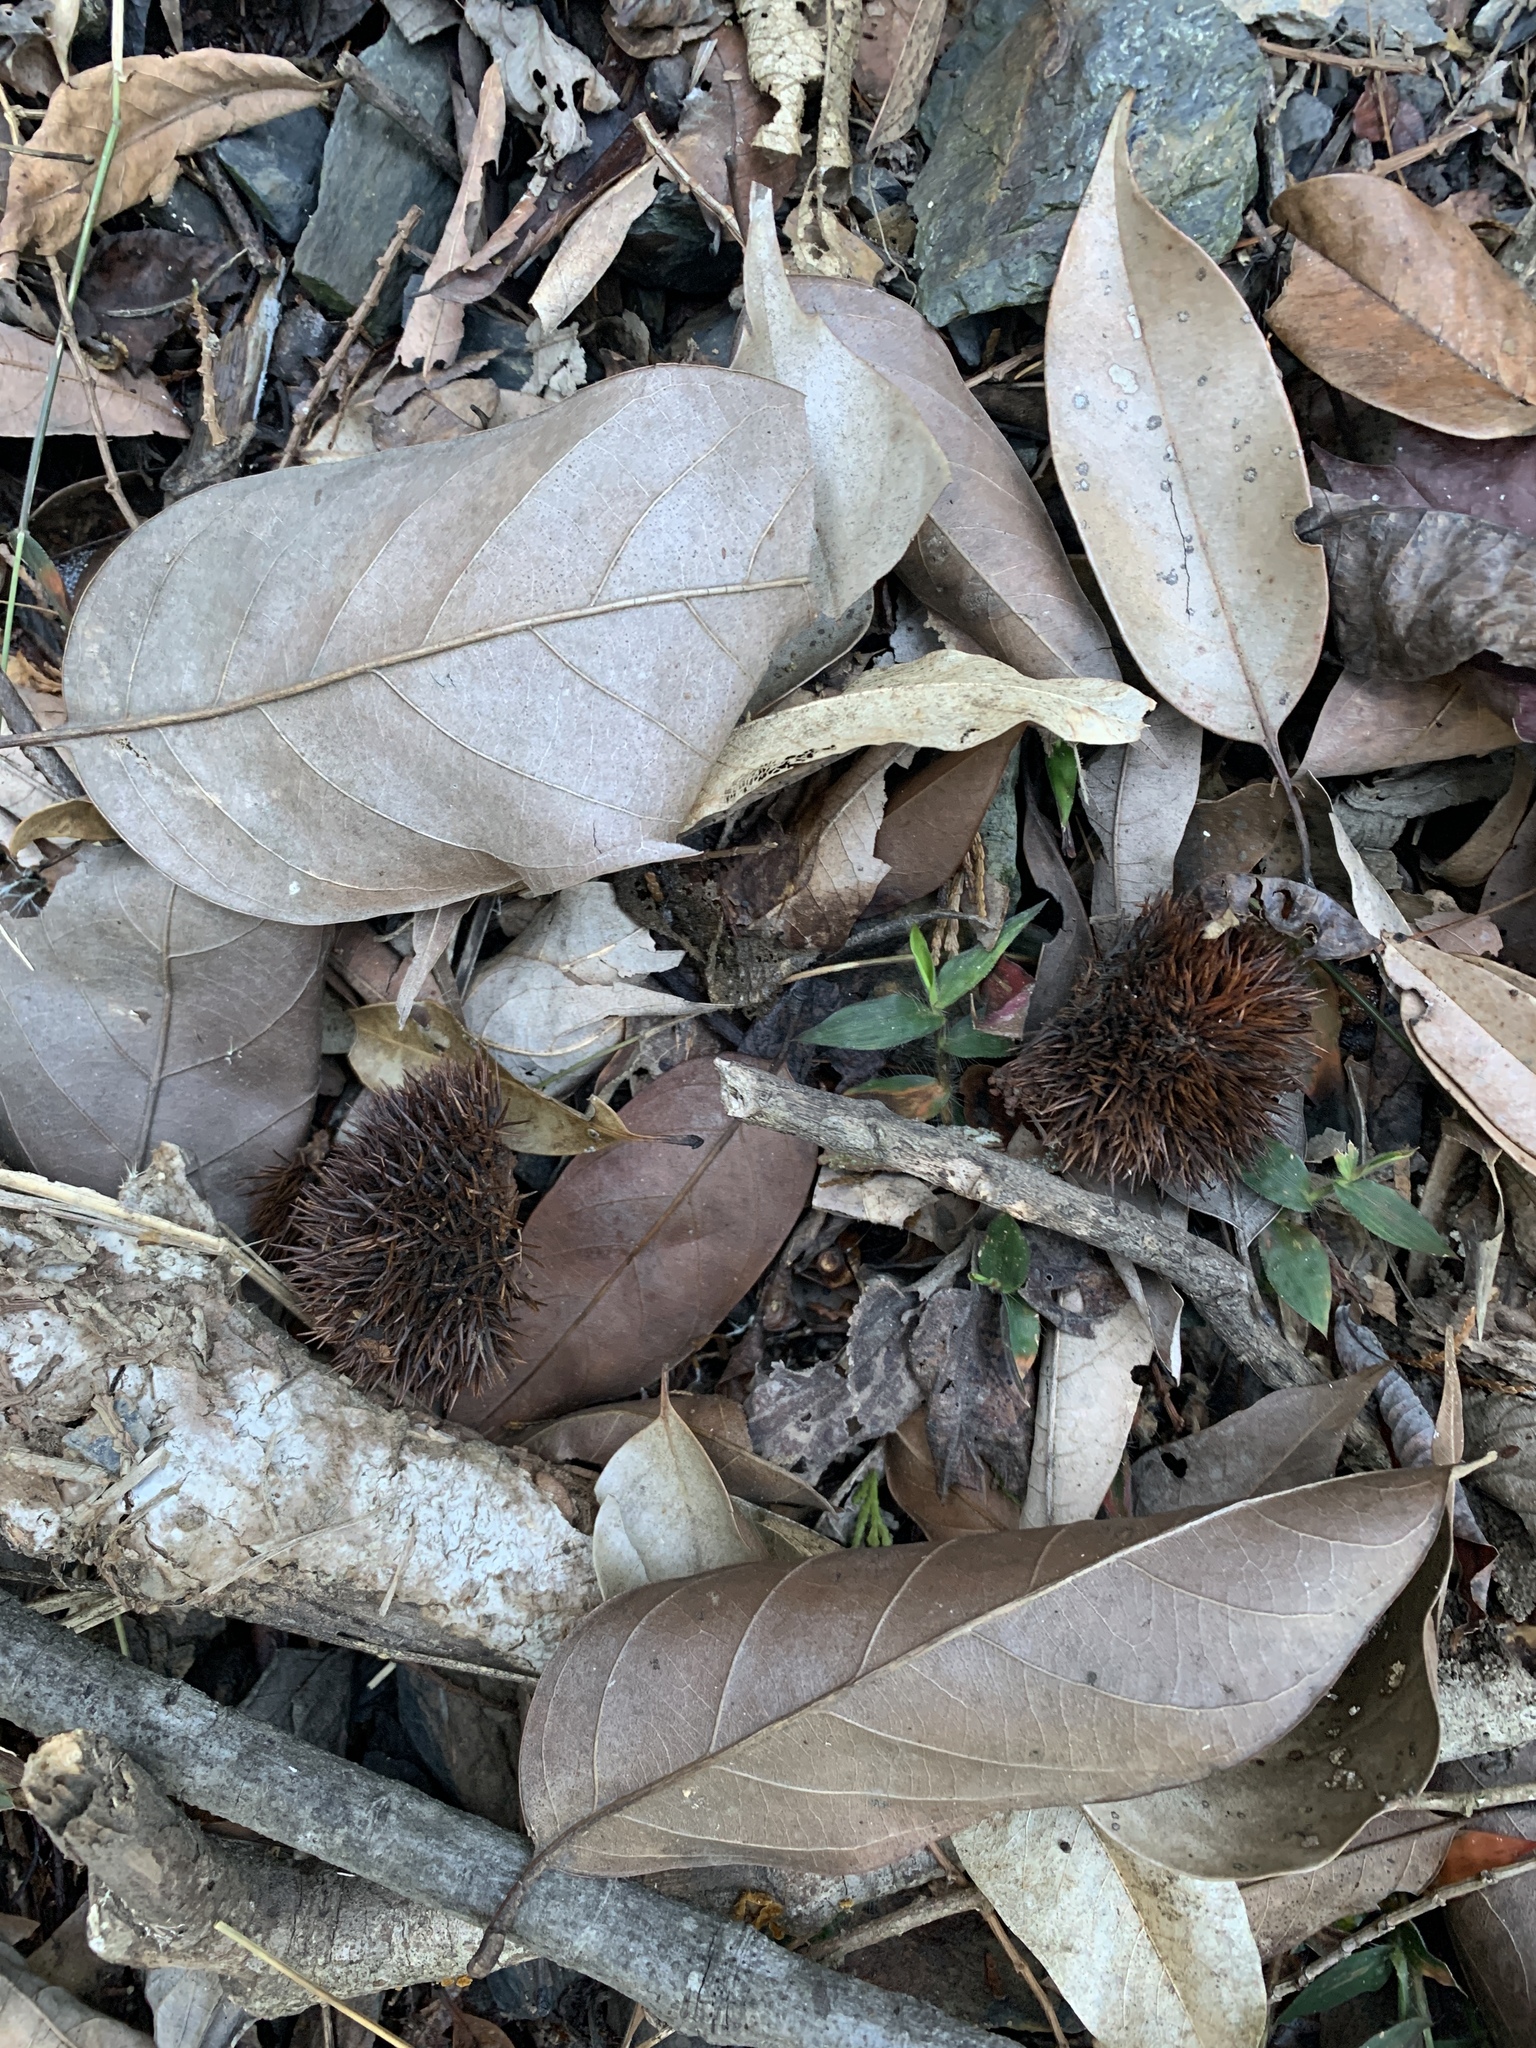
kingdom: Plantae
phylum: Tracheophyta
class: Magnoliopsida
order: Fagales
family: Fagaceae
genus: Castanopsis
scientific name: Castanopsis kawakamii
